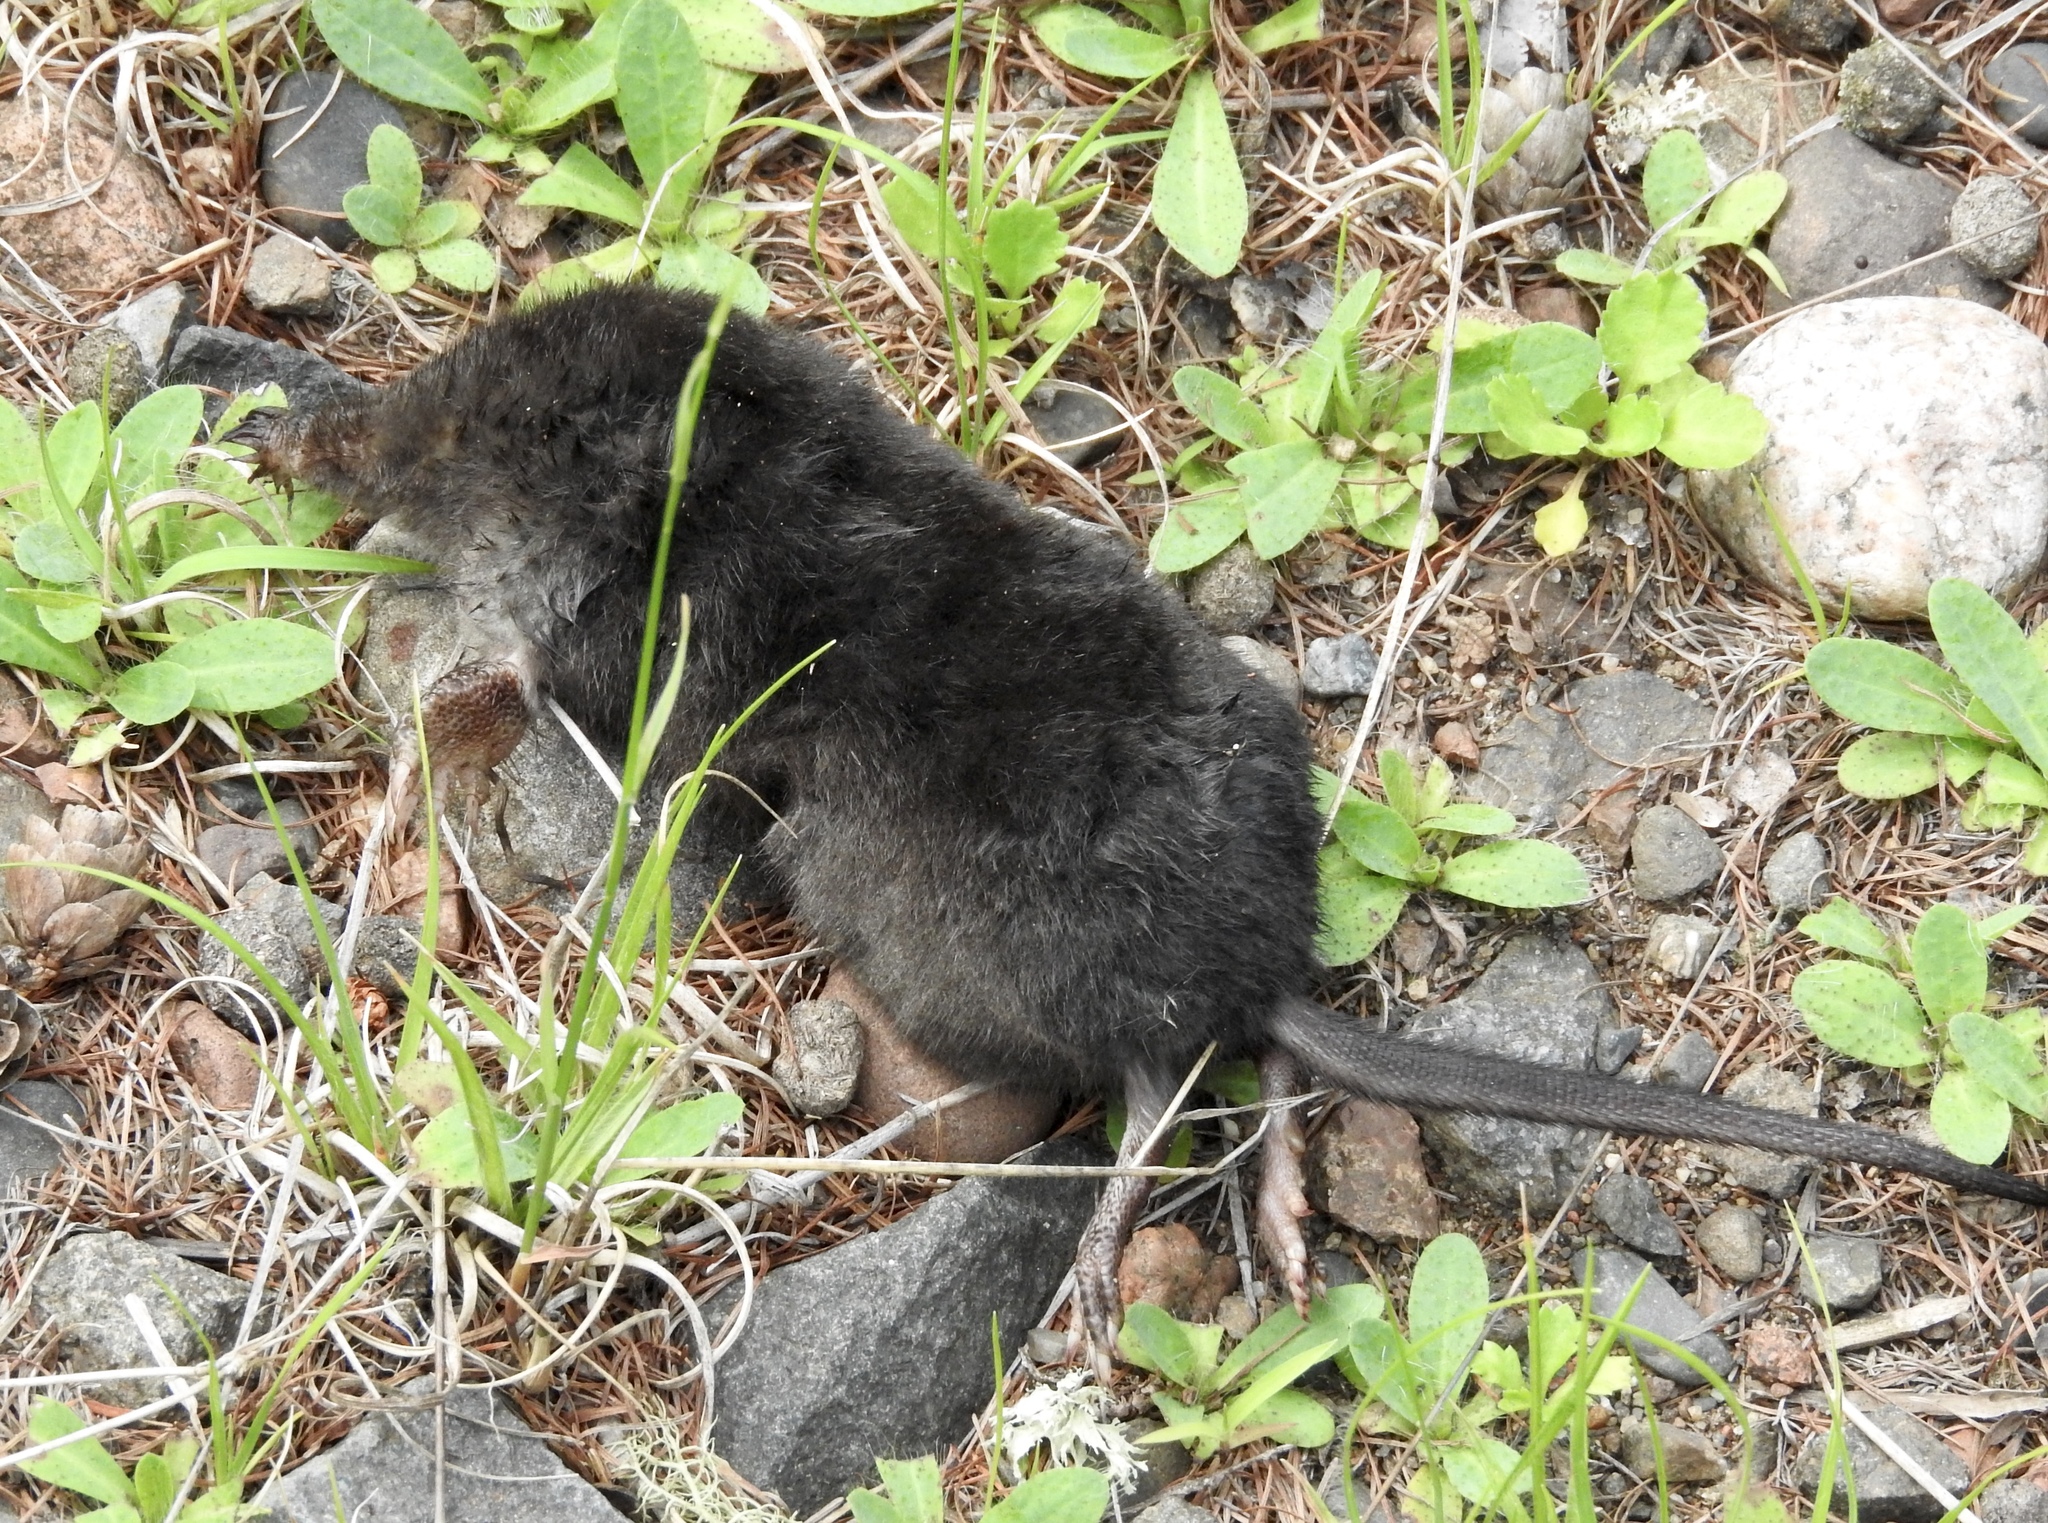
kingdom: Animalia
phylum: Chordata
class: Mammalia
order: Soricomorpha
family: Talpidae
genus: Condylura
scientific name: Condylura cristata
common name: Star-nosed mole
